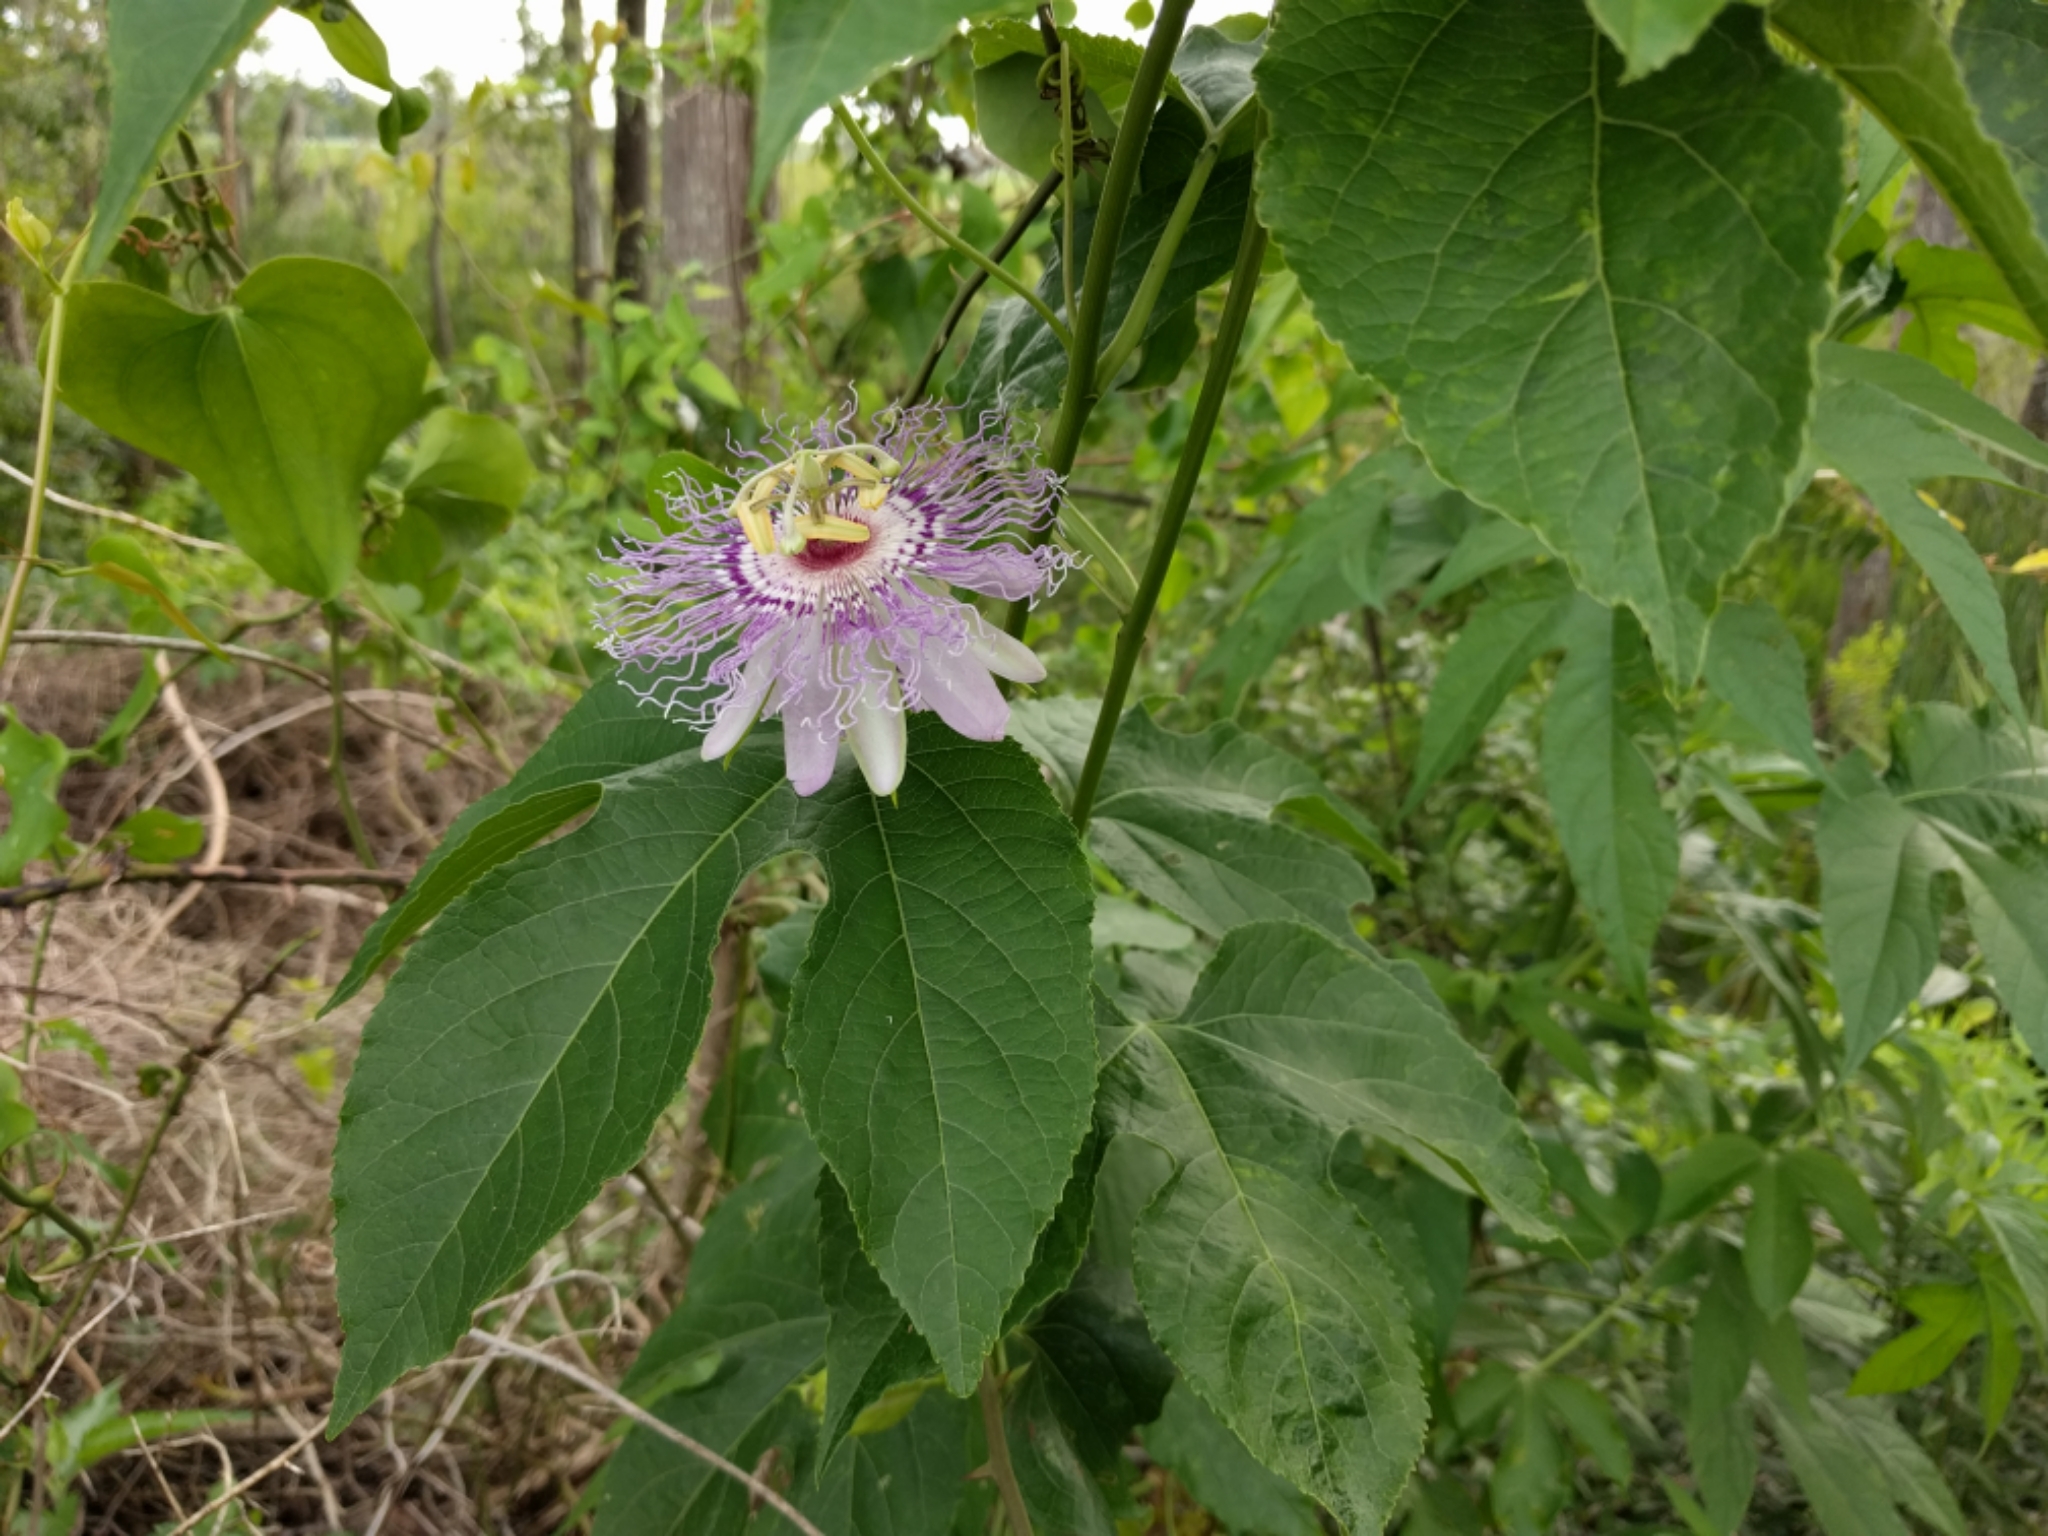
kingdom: Plantae
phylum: Tracheophyta
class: Magnoliopsida
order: Malpighiales
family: Passifloraceae
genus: Passiflora
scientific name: Passiflora incarnata
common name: Apricot-vine
